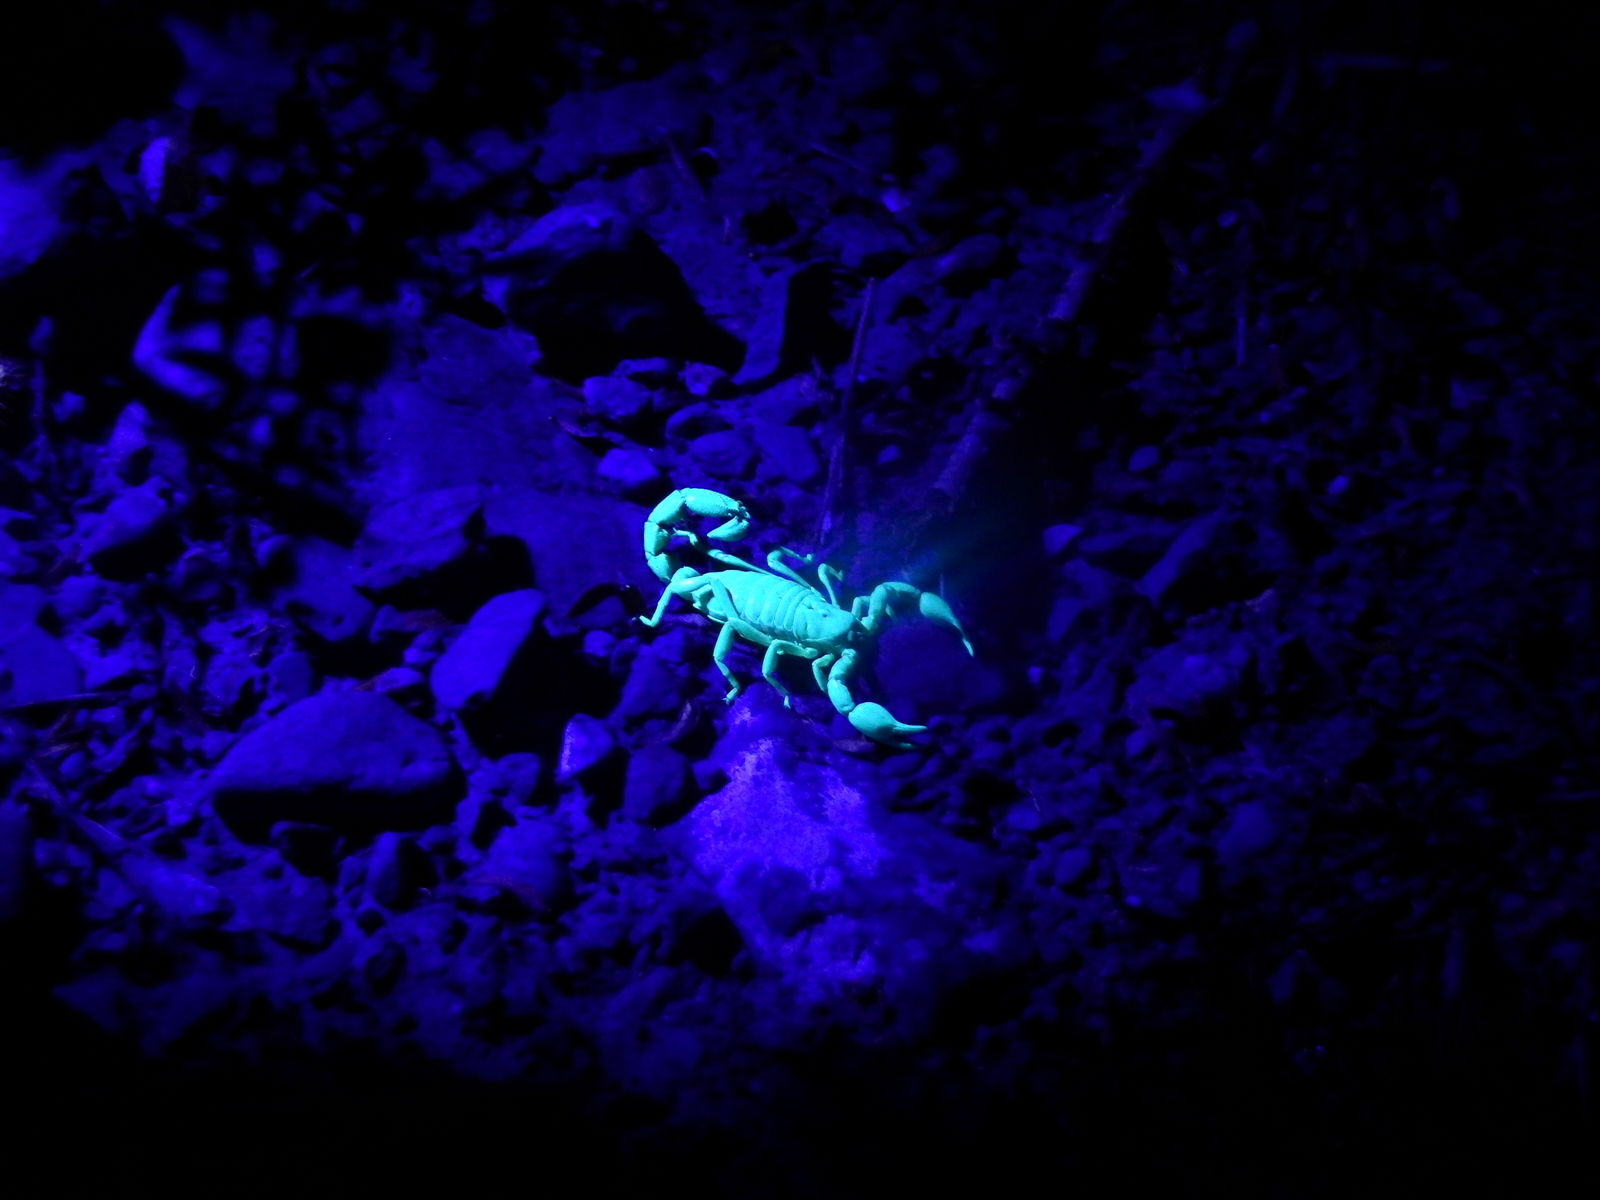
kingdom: Animalia
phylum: Arthropoda
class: Arachnida
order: Scorpiones
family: Bothriuridae
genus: Bothriurus
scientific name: Bothriurus burmeisteri
